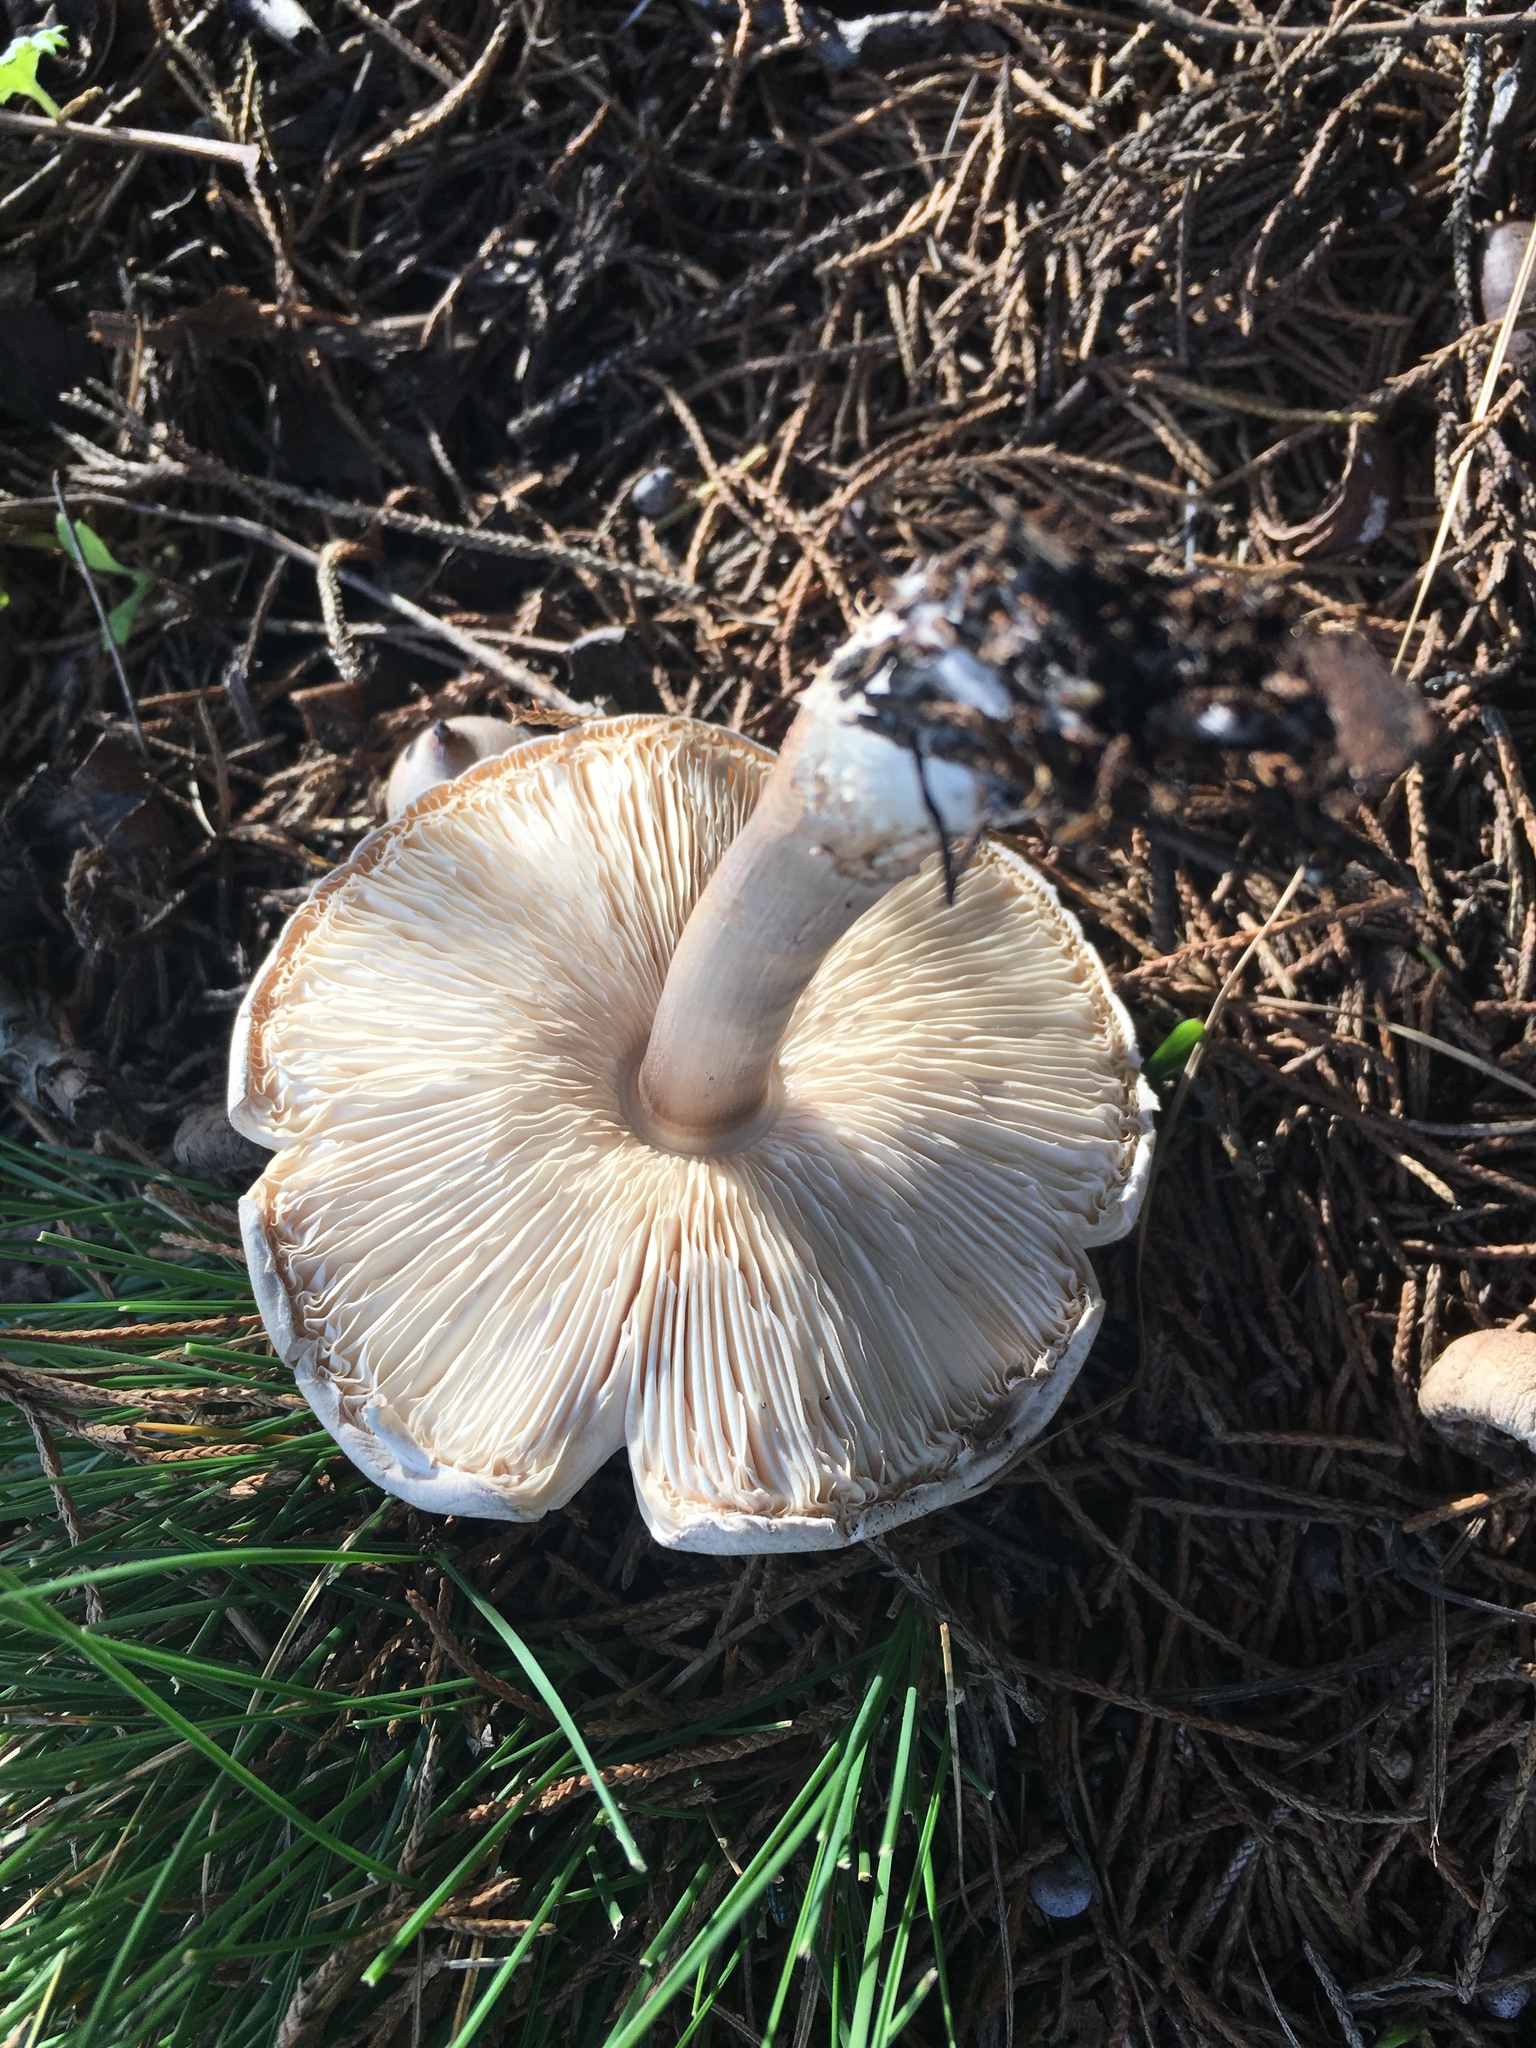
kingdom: Fungi
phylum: Basidiomycota
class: Agaricomycetes
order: Agaricales
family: Agaricaceae
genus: Leucoagaricus
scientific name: Leucoagaricus leucothites
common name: White dapperling
